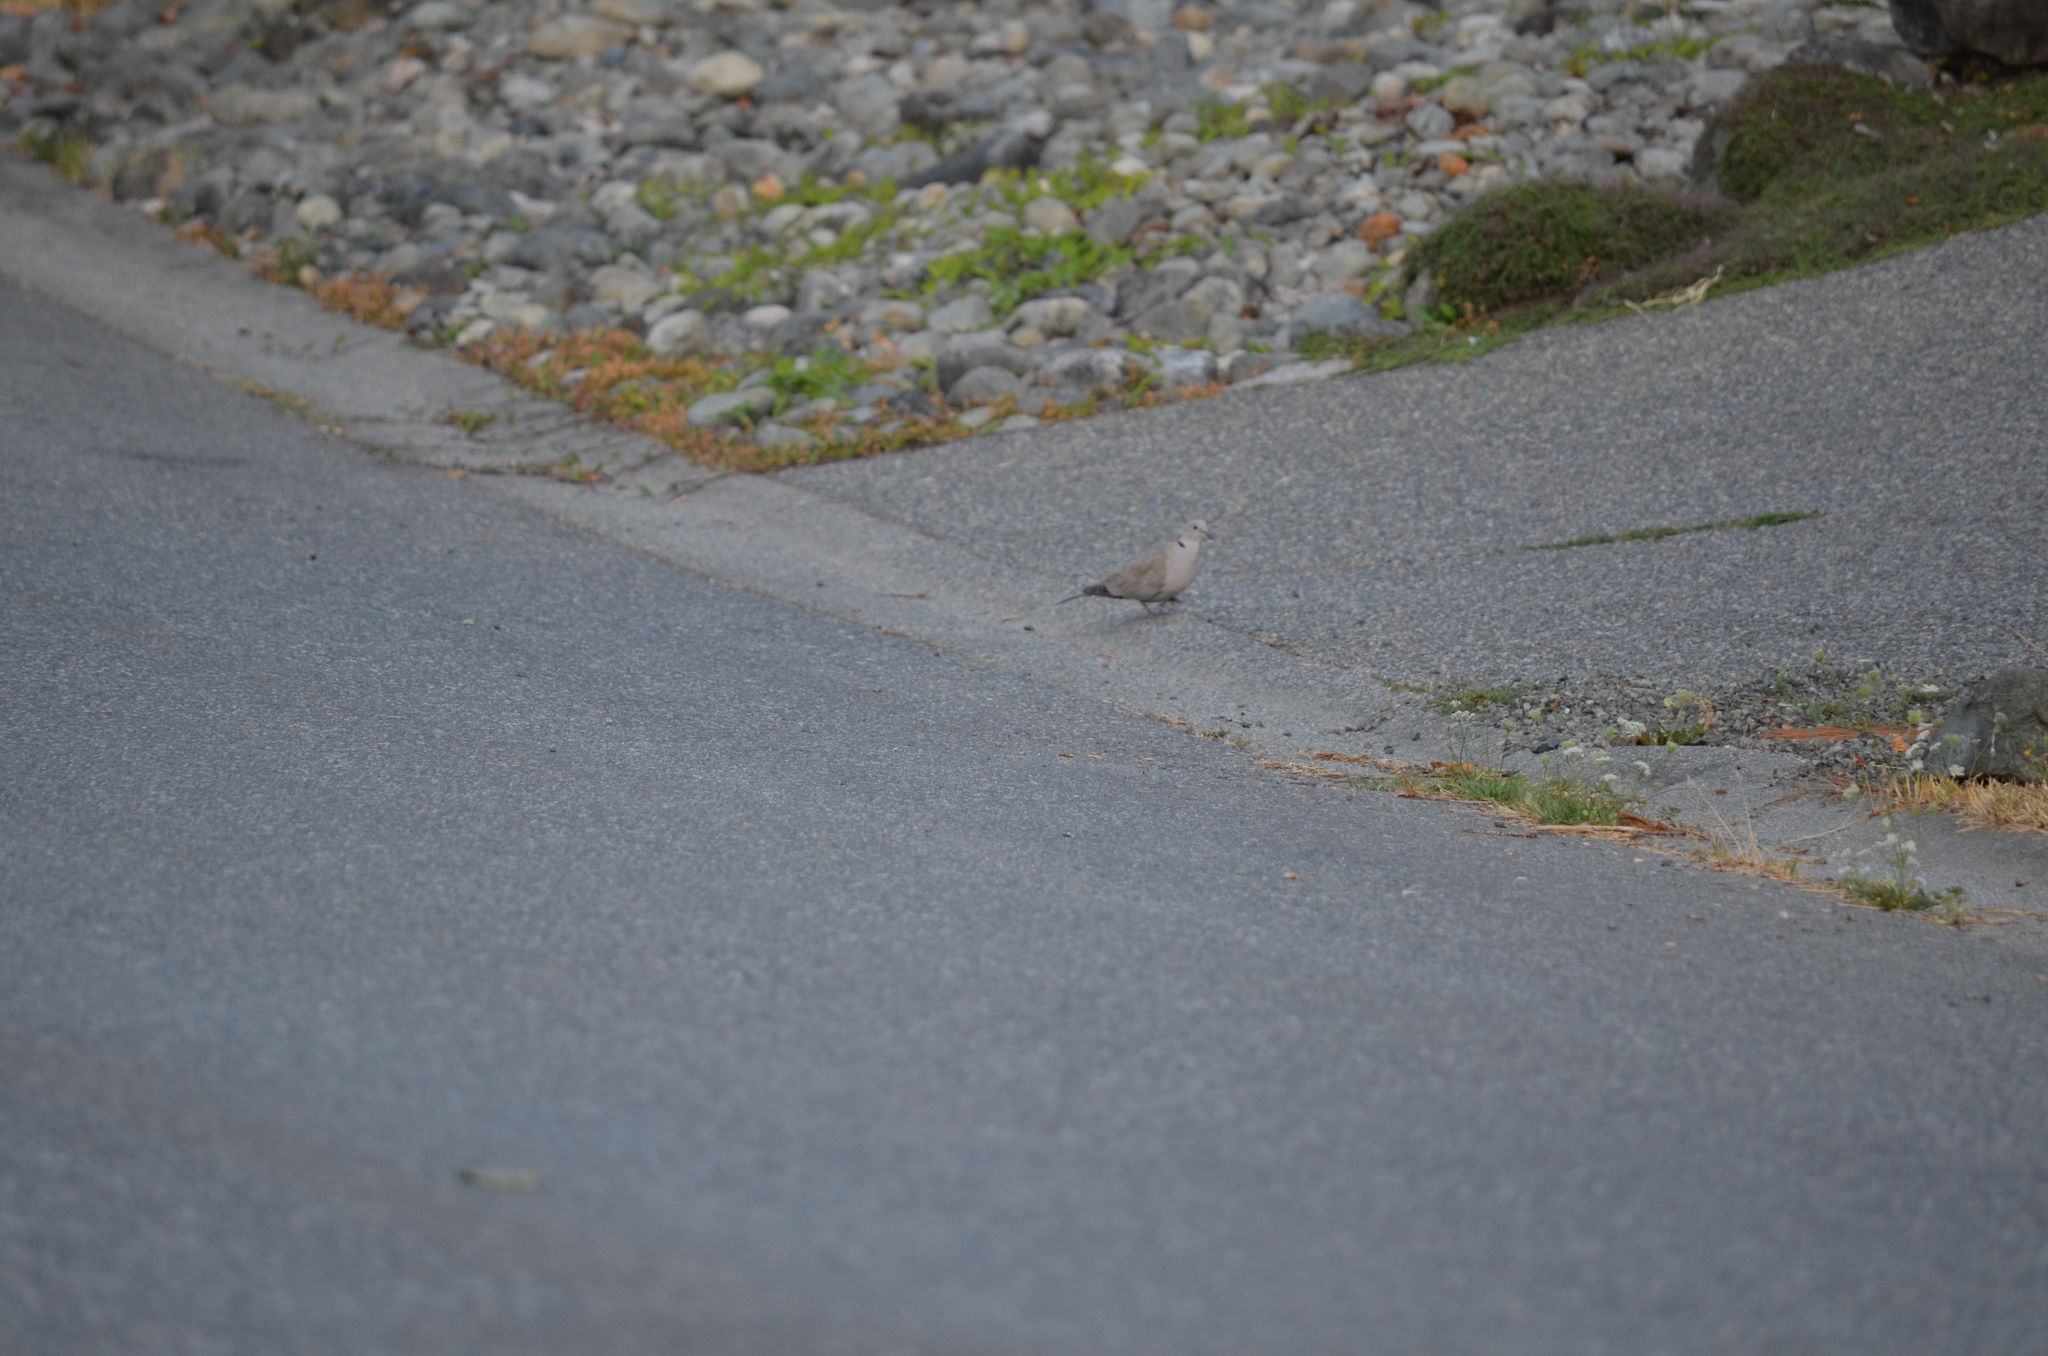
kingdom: Animalia
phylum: Chordata
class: Aves
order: Columbiformes
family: Columbidae
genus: Streptopelia
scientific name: Streptopelia decaocto
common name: Eurasian collared dove
